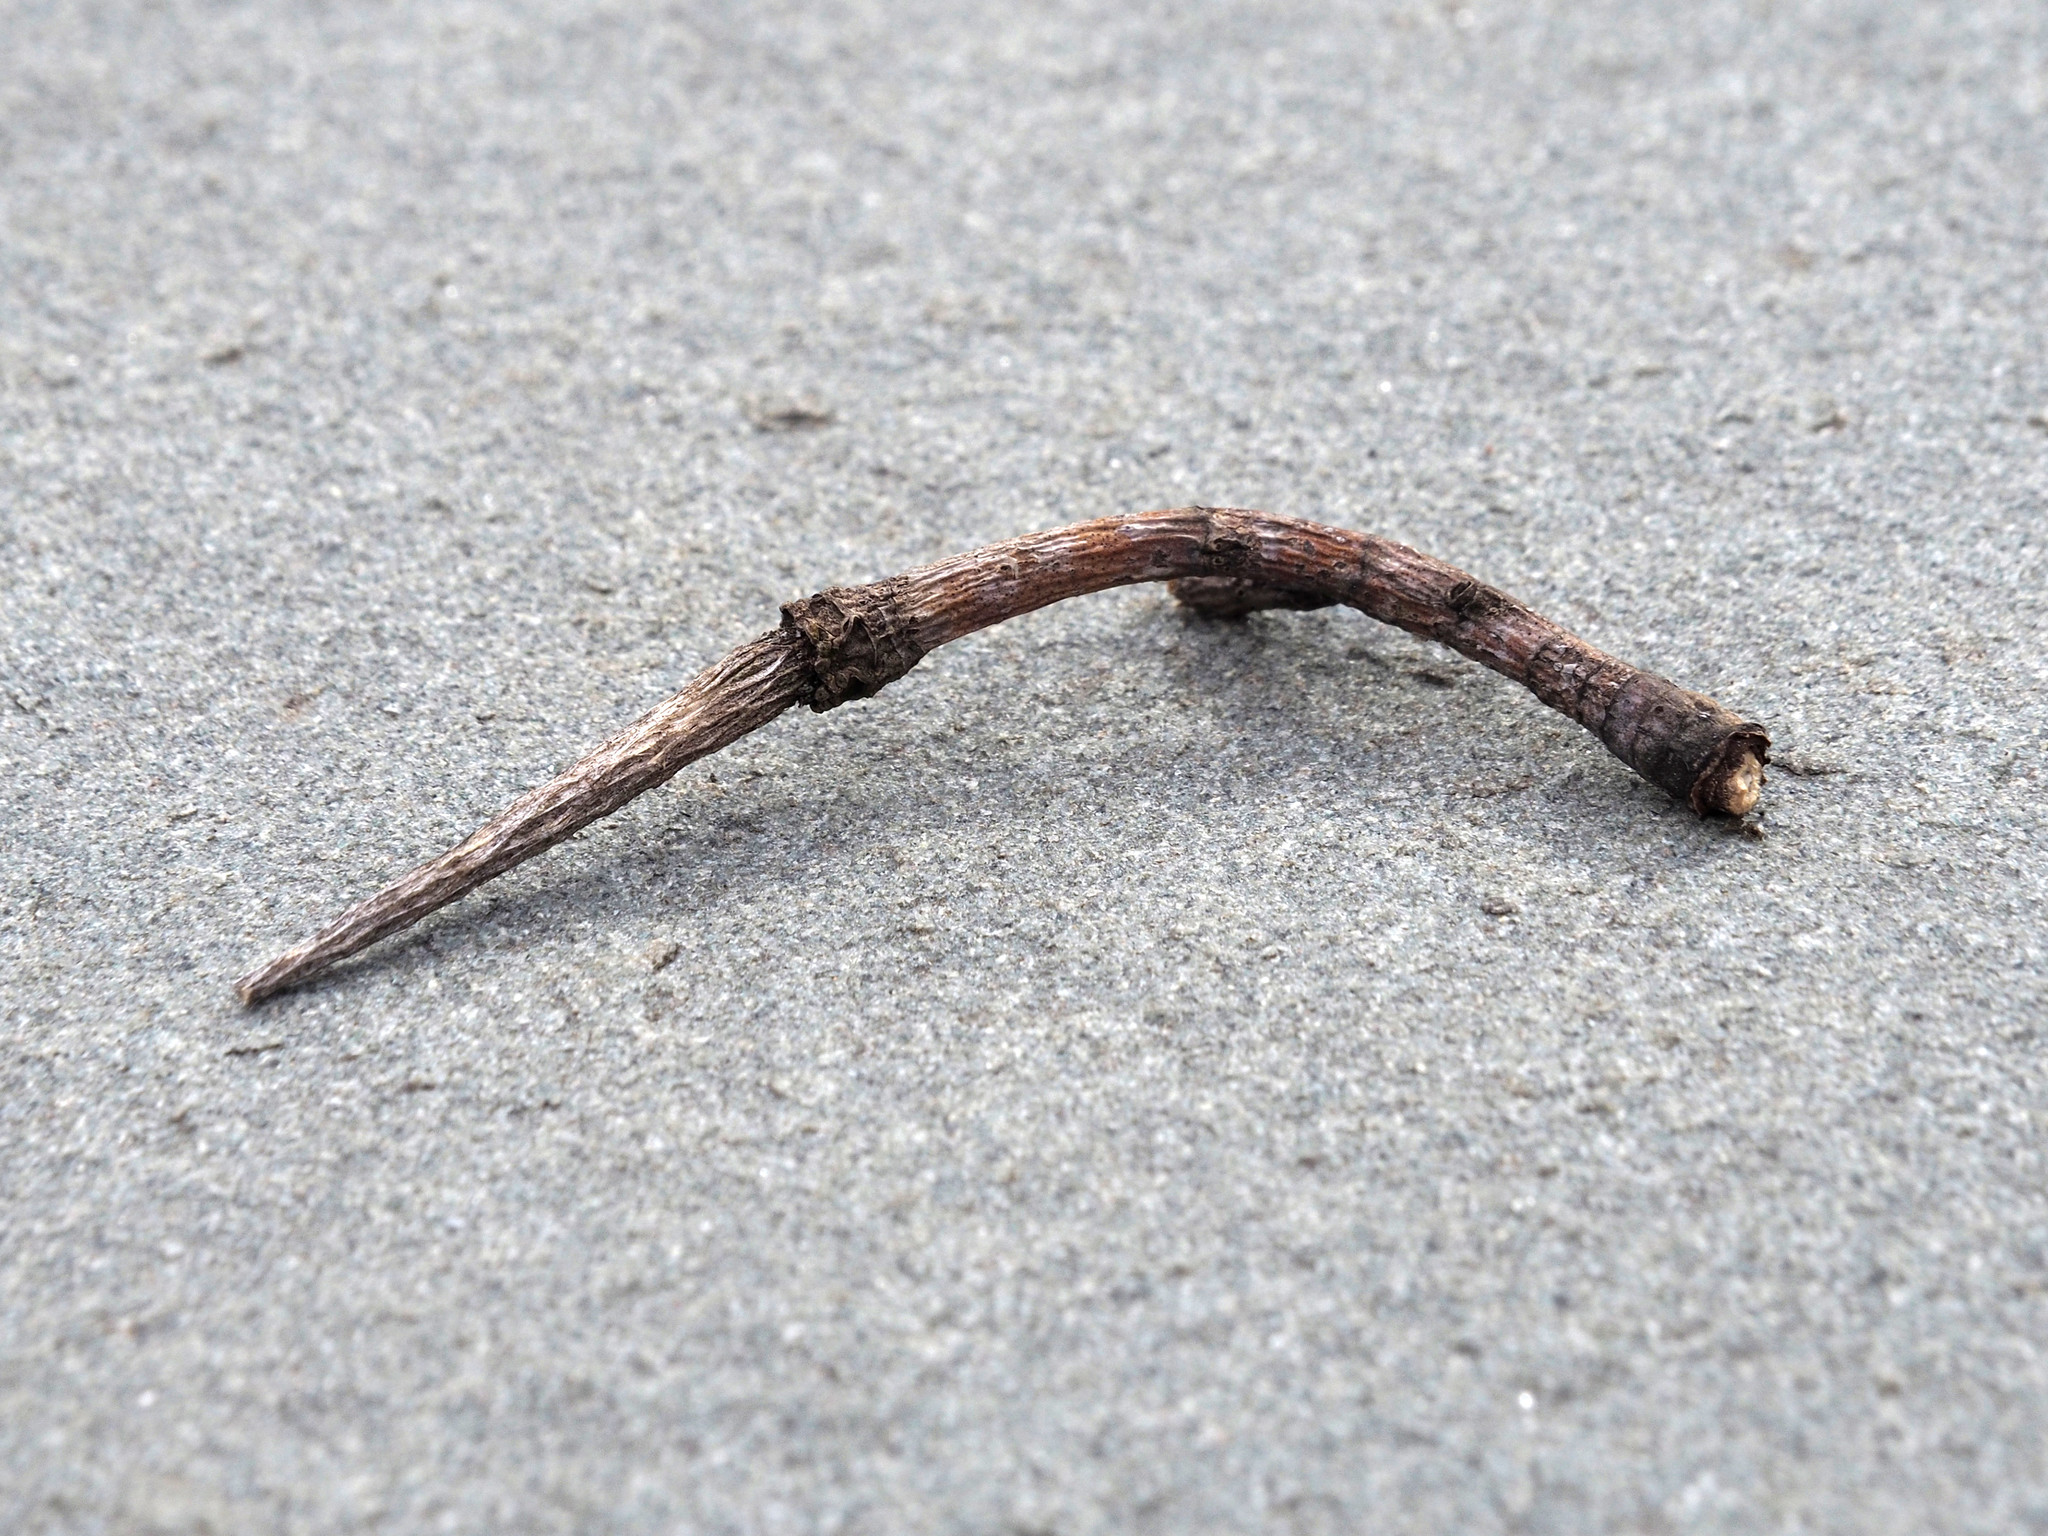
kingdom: Plantae
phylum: Tracheophyta
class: Magnoliopsida
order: Magnoliales
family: Magnoliaceae
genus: Liriodendron
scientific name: Liriodendron tulipifera
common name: Tulip tree
